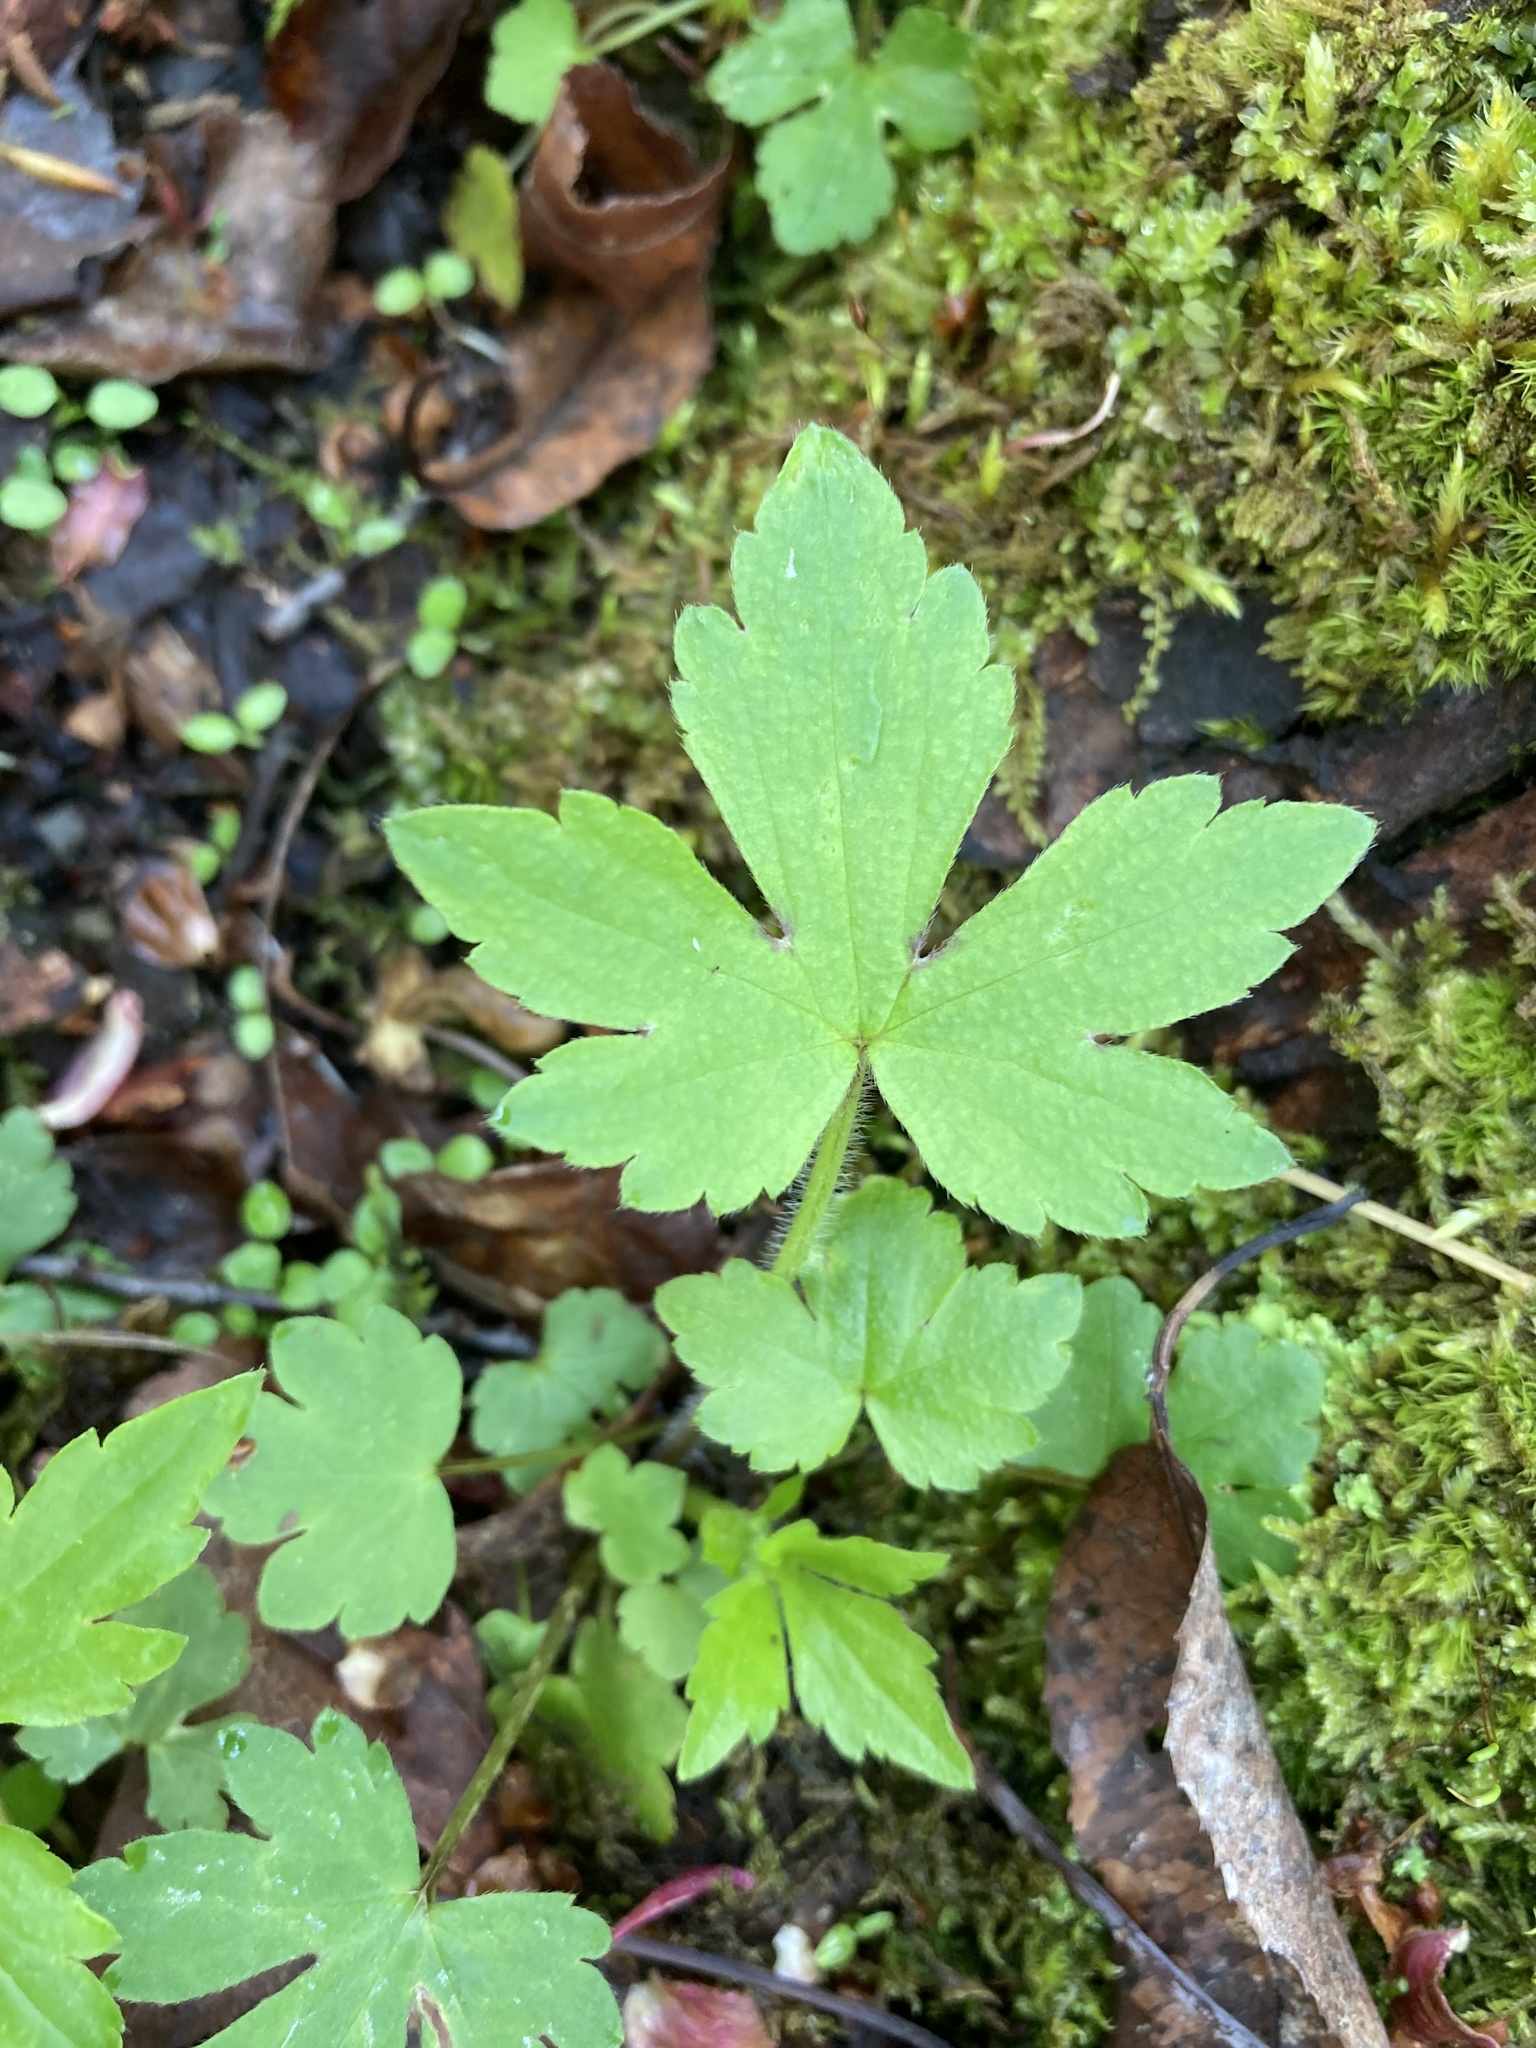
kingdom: Plantae
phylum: Tracheophyta
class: Magnoliopsida
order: Ranunculales
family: Ranunculaceae
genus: Ranunculus
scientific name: Ranunculus recurvatus
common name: Blisterwort
